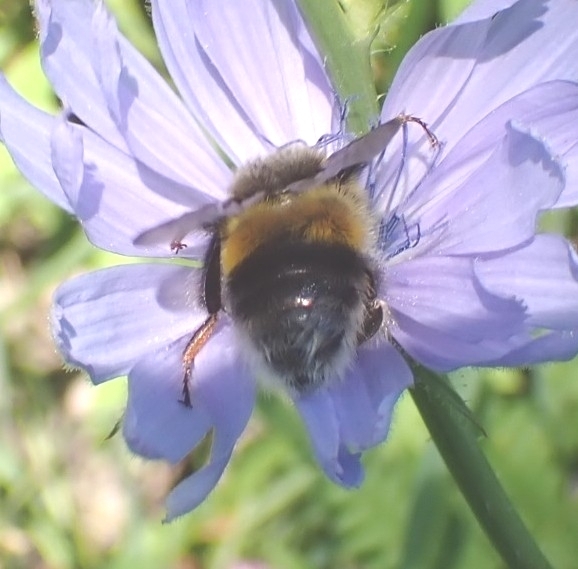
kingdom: Animalia
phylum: Arthropoda
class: Insecta
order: Hymenoptera
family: Apidae
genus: Bombus
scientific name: Bombus lucorum
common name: White-tailed bumblebee
